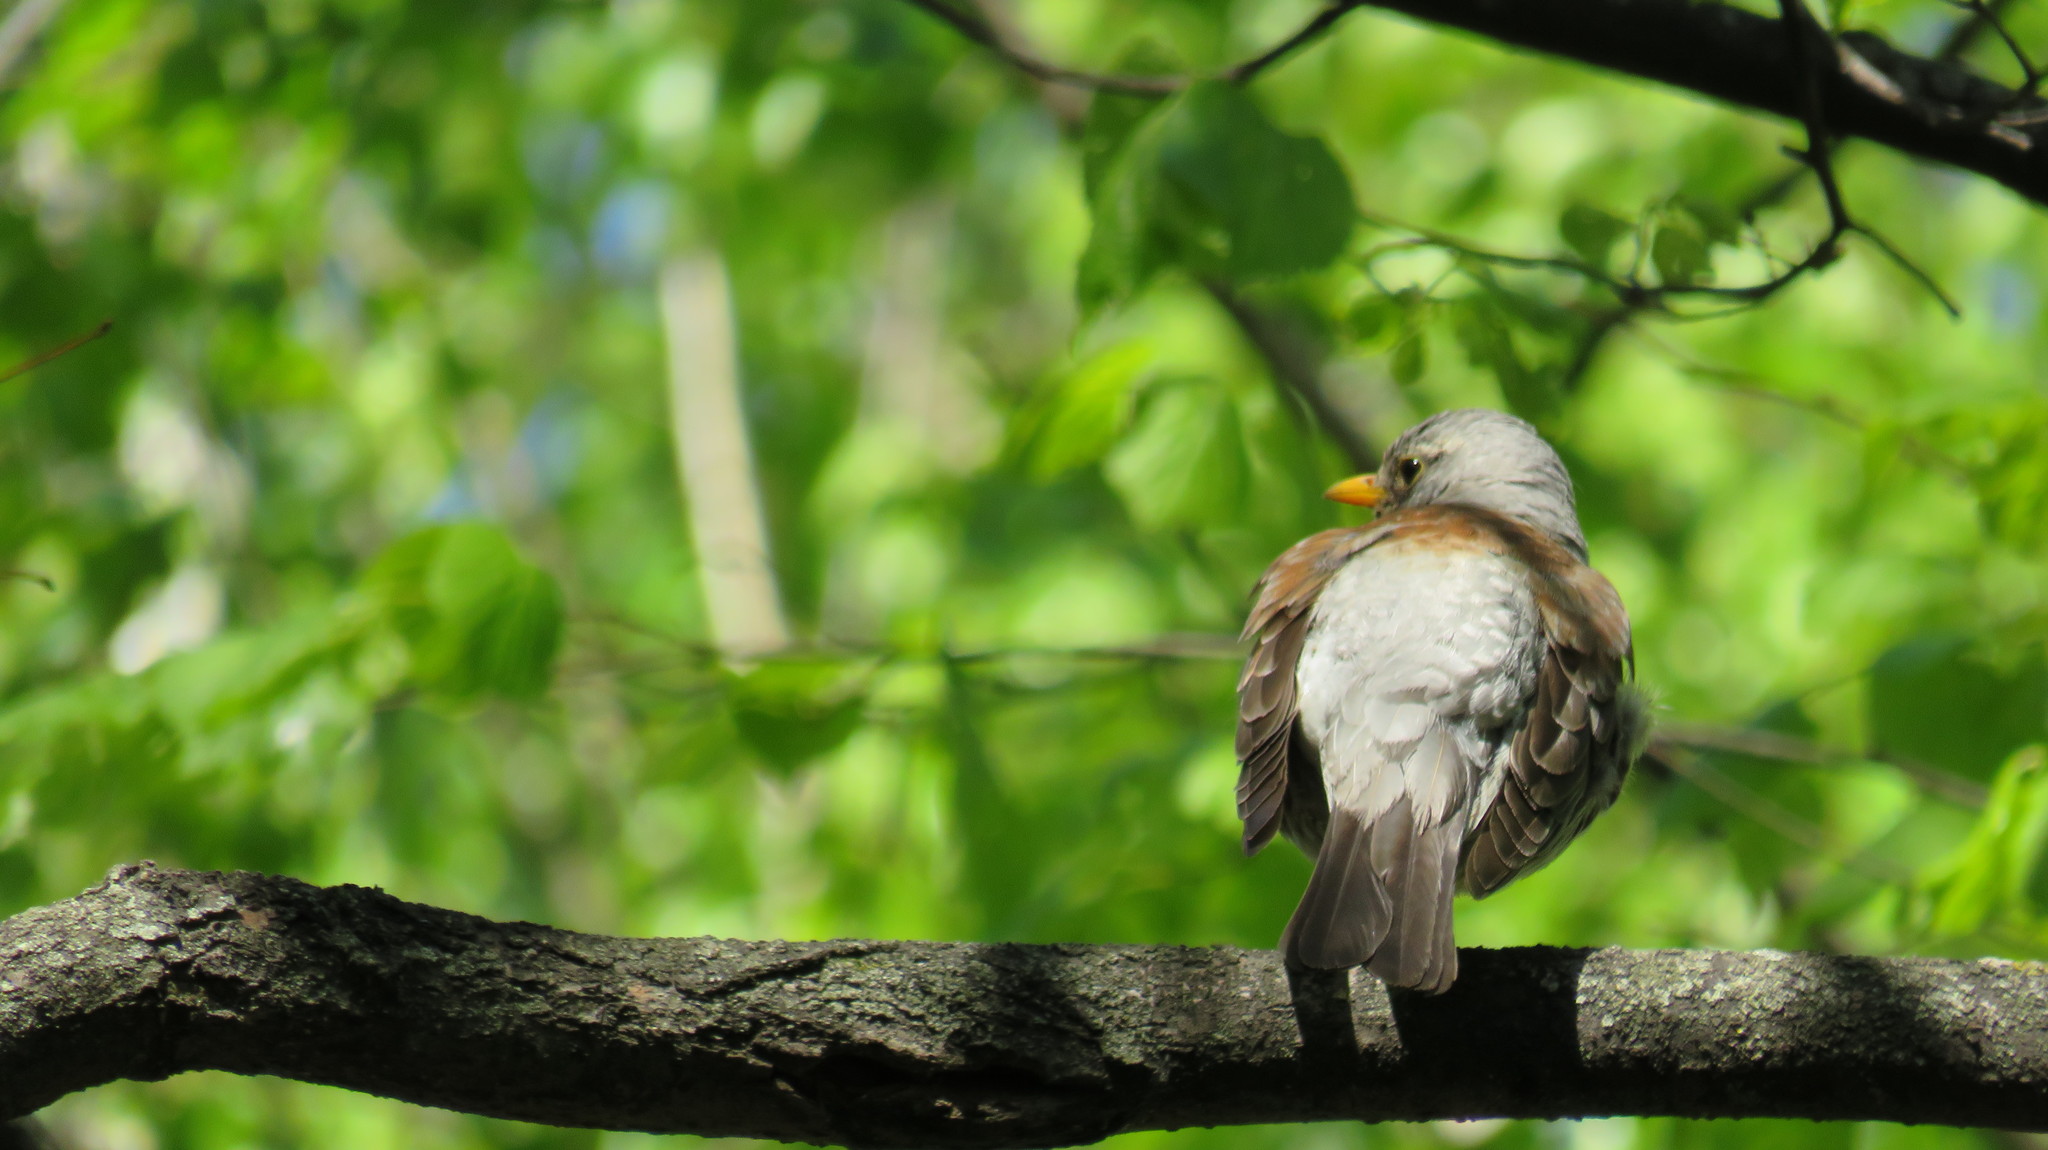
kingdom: Animalia
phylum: Chordata
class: Aves
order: Passeriformes
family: Turdidae
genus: Turdus
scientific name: Turdus pilaris
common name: Fieldfare
